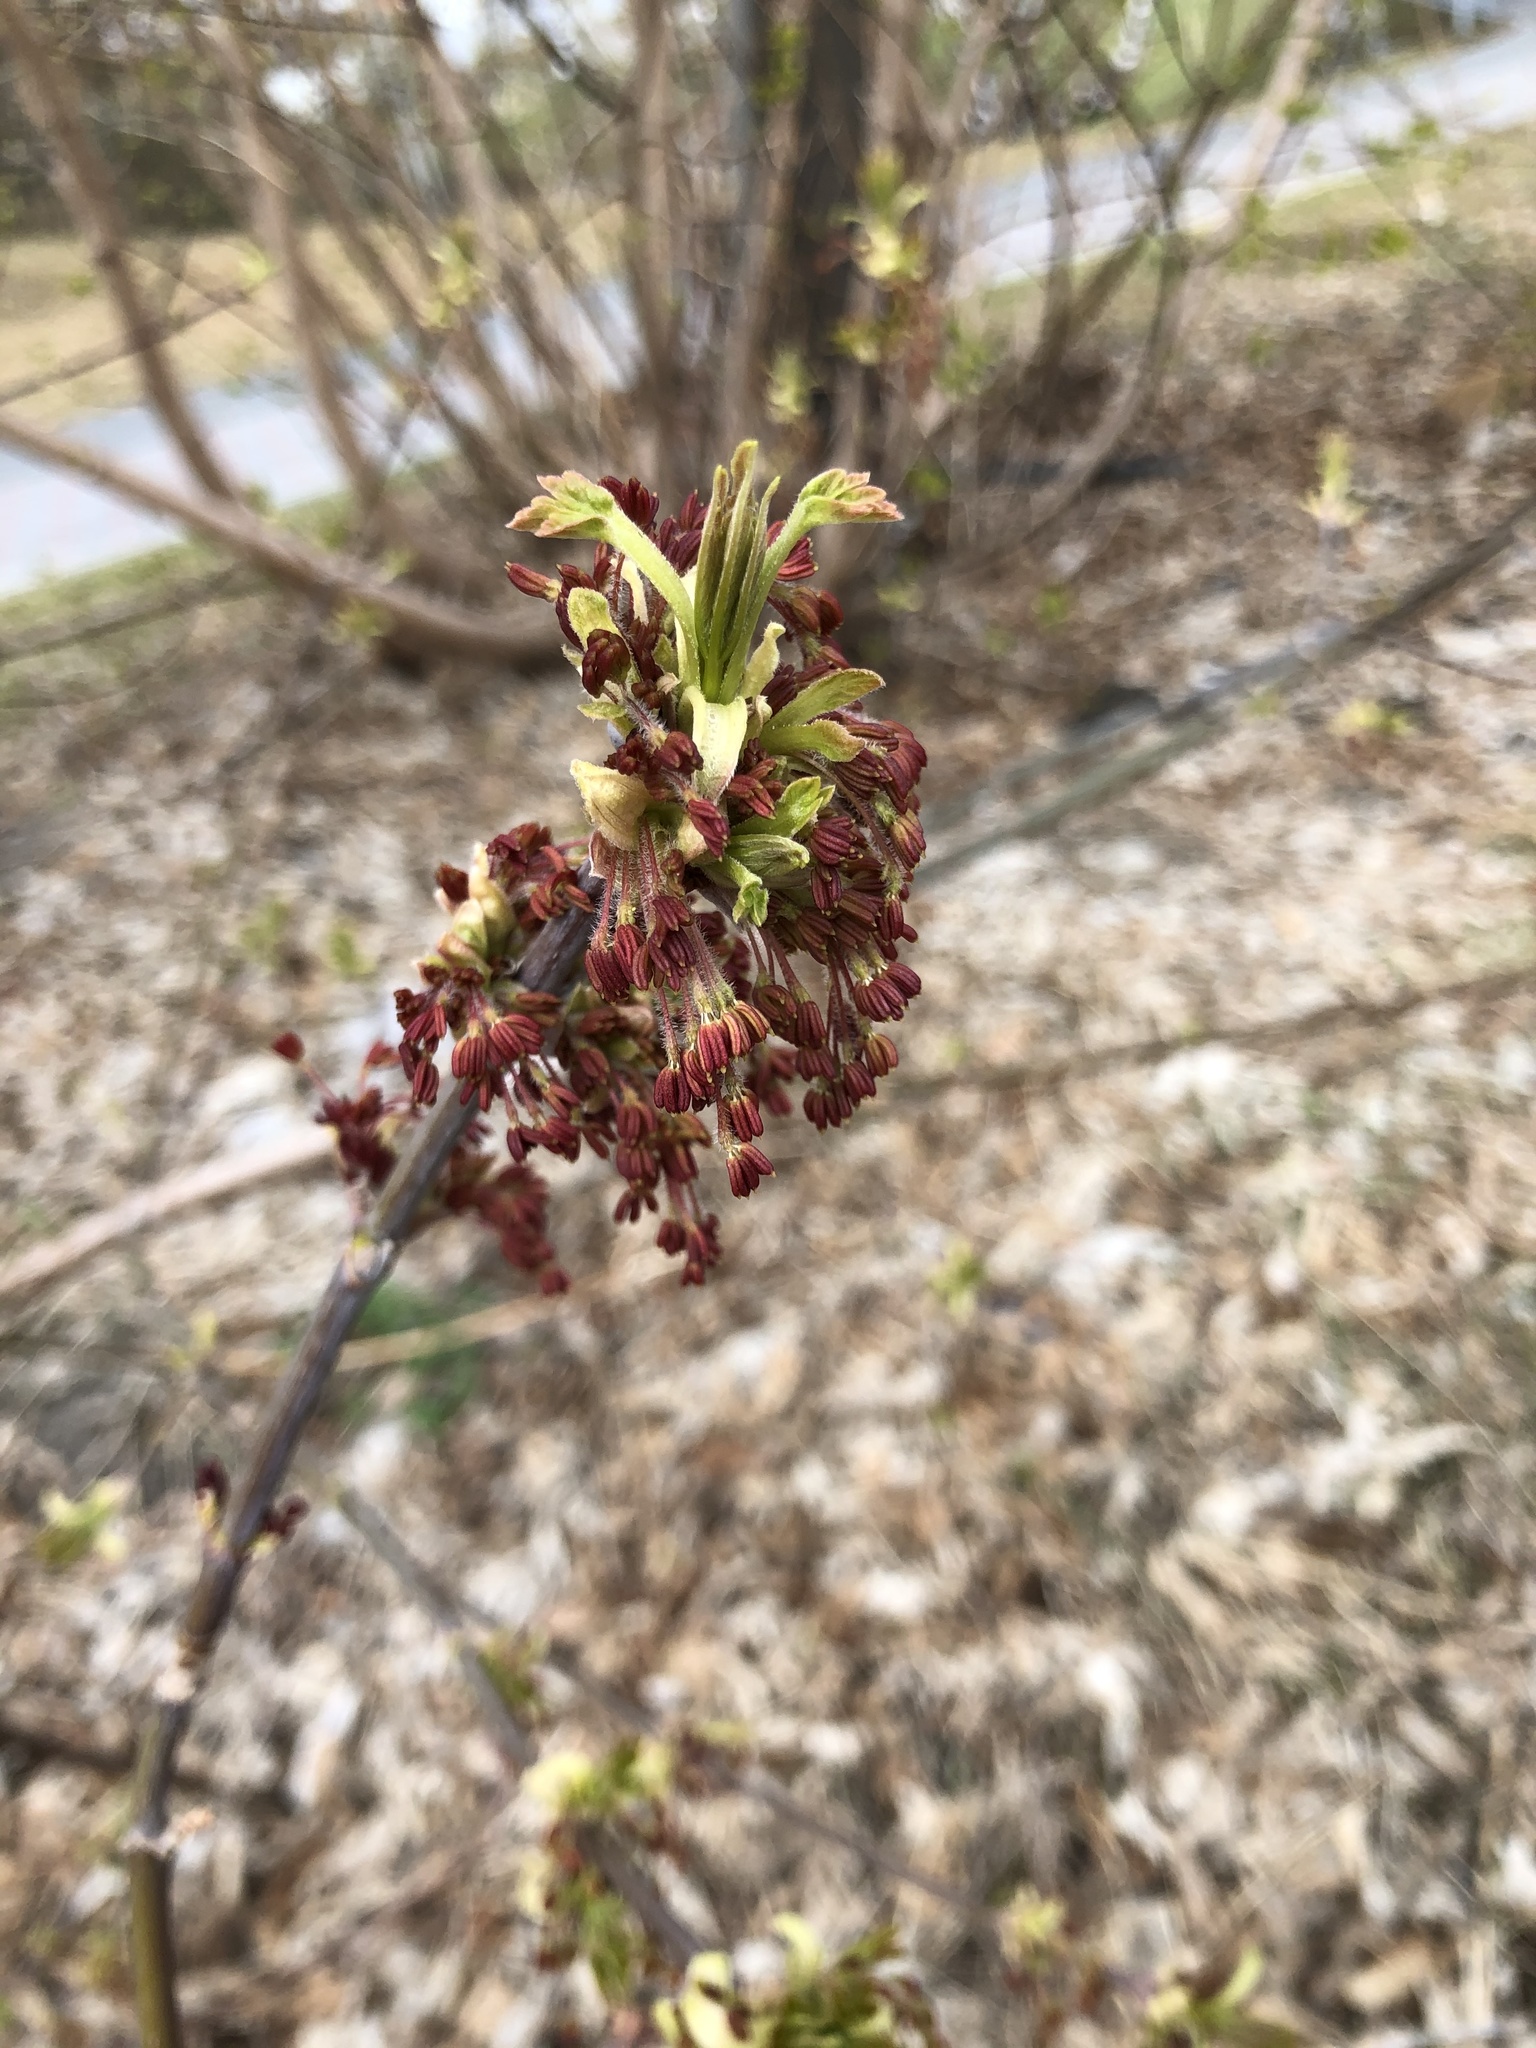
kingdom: Plantae
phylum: Tracheophyta
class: Magnoliopsida
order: Sapindales
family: Sapindaceae
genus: Acer
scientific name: Acer negundo
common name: Ashleaf maple
